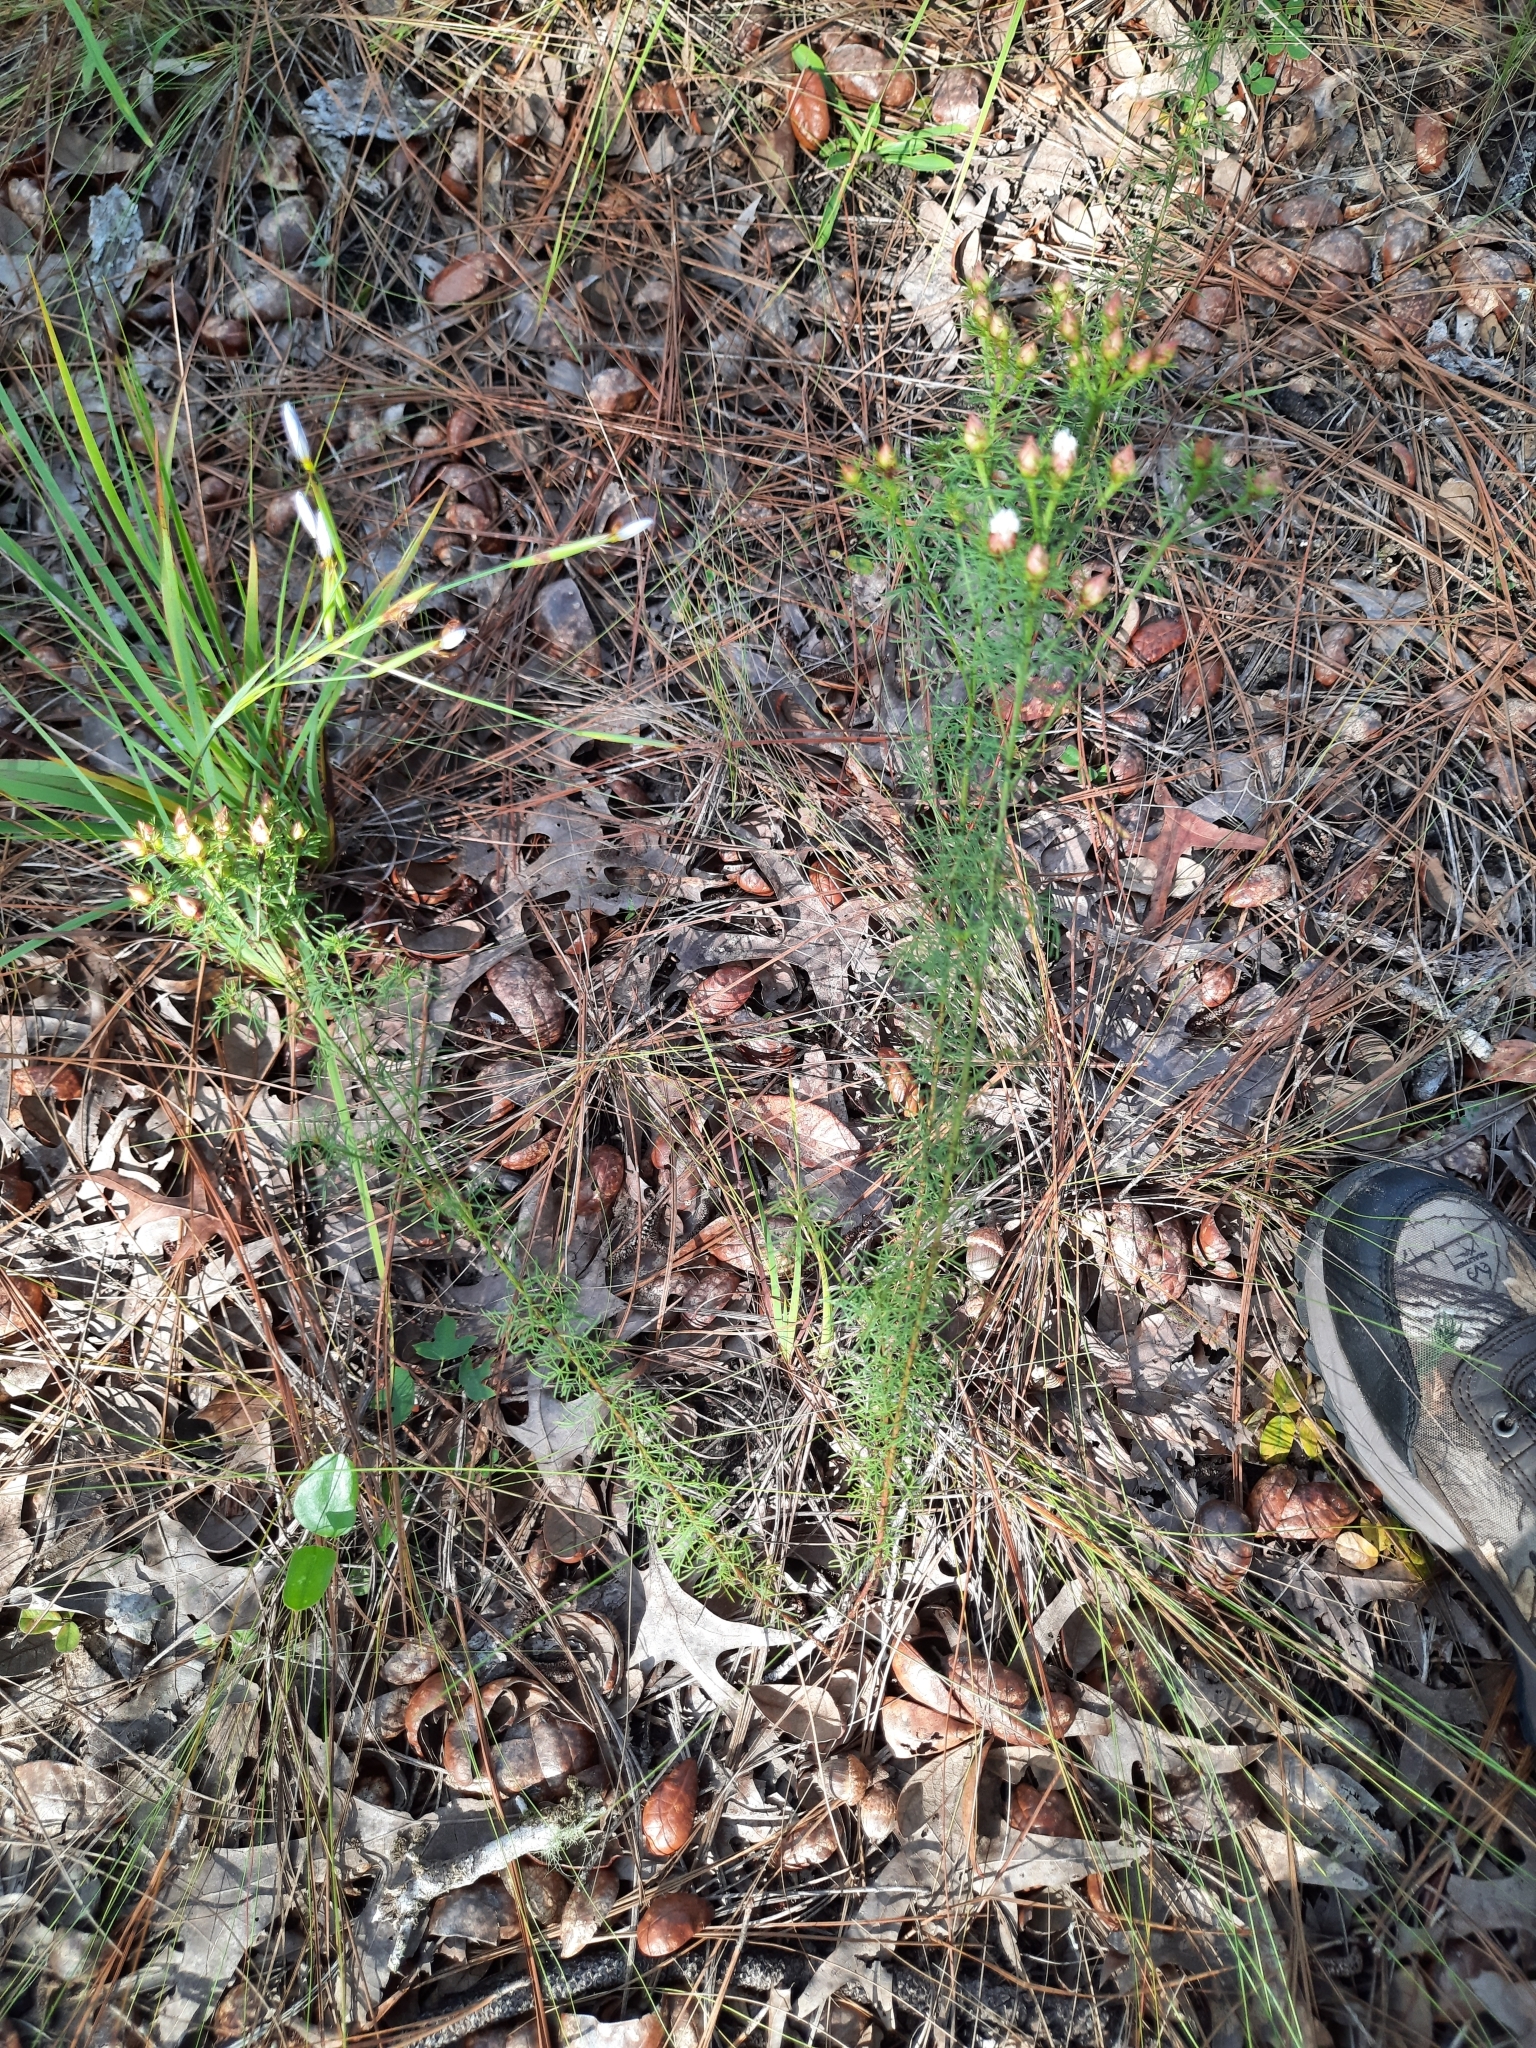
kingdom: Plantae
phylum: Tracheophyta
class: Magnoliopsida
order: Fabales
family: Fabaceae
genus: Dalea
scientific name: Dalea pinnata
